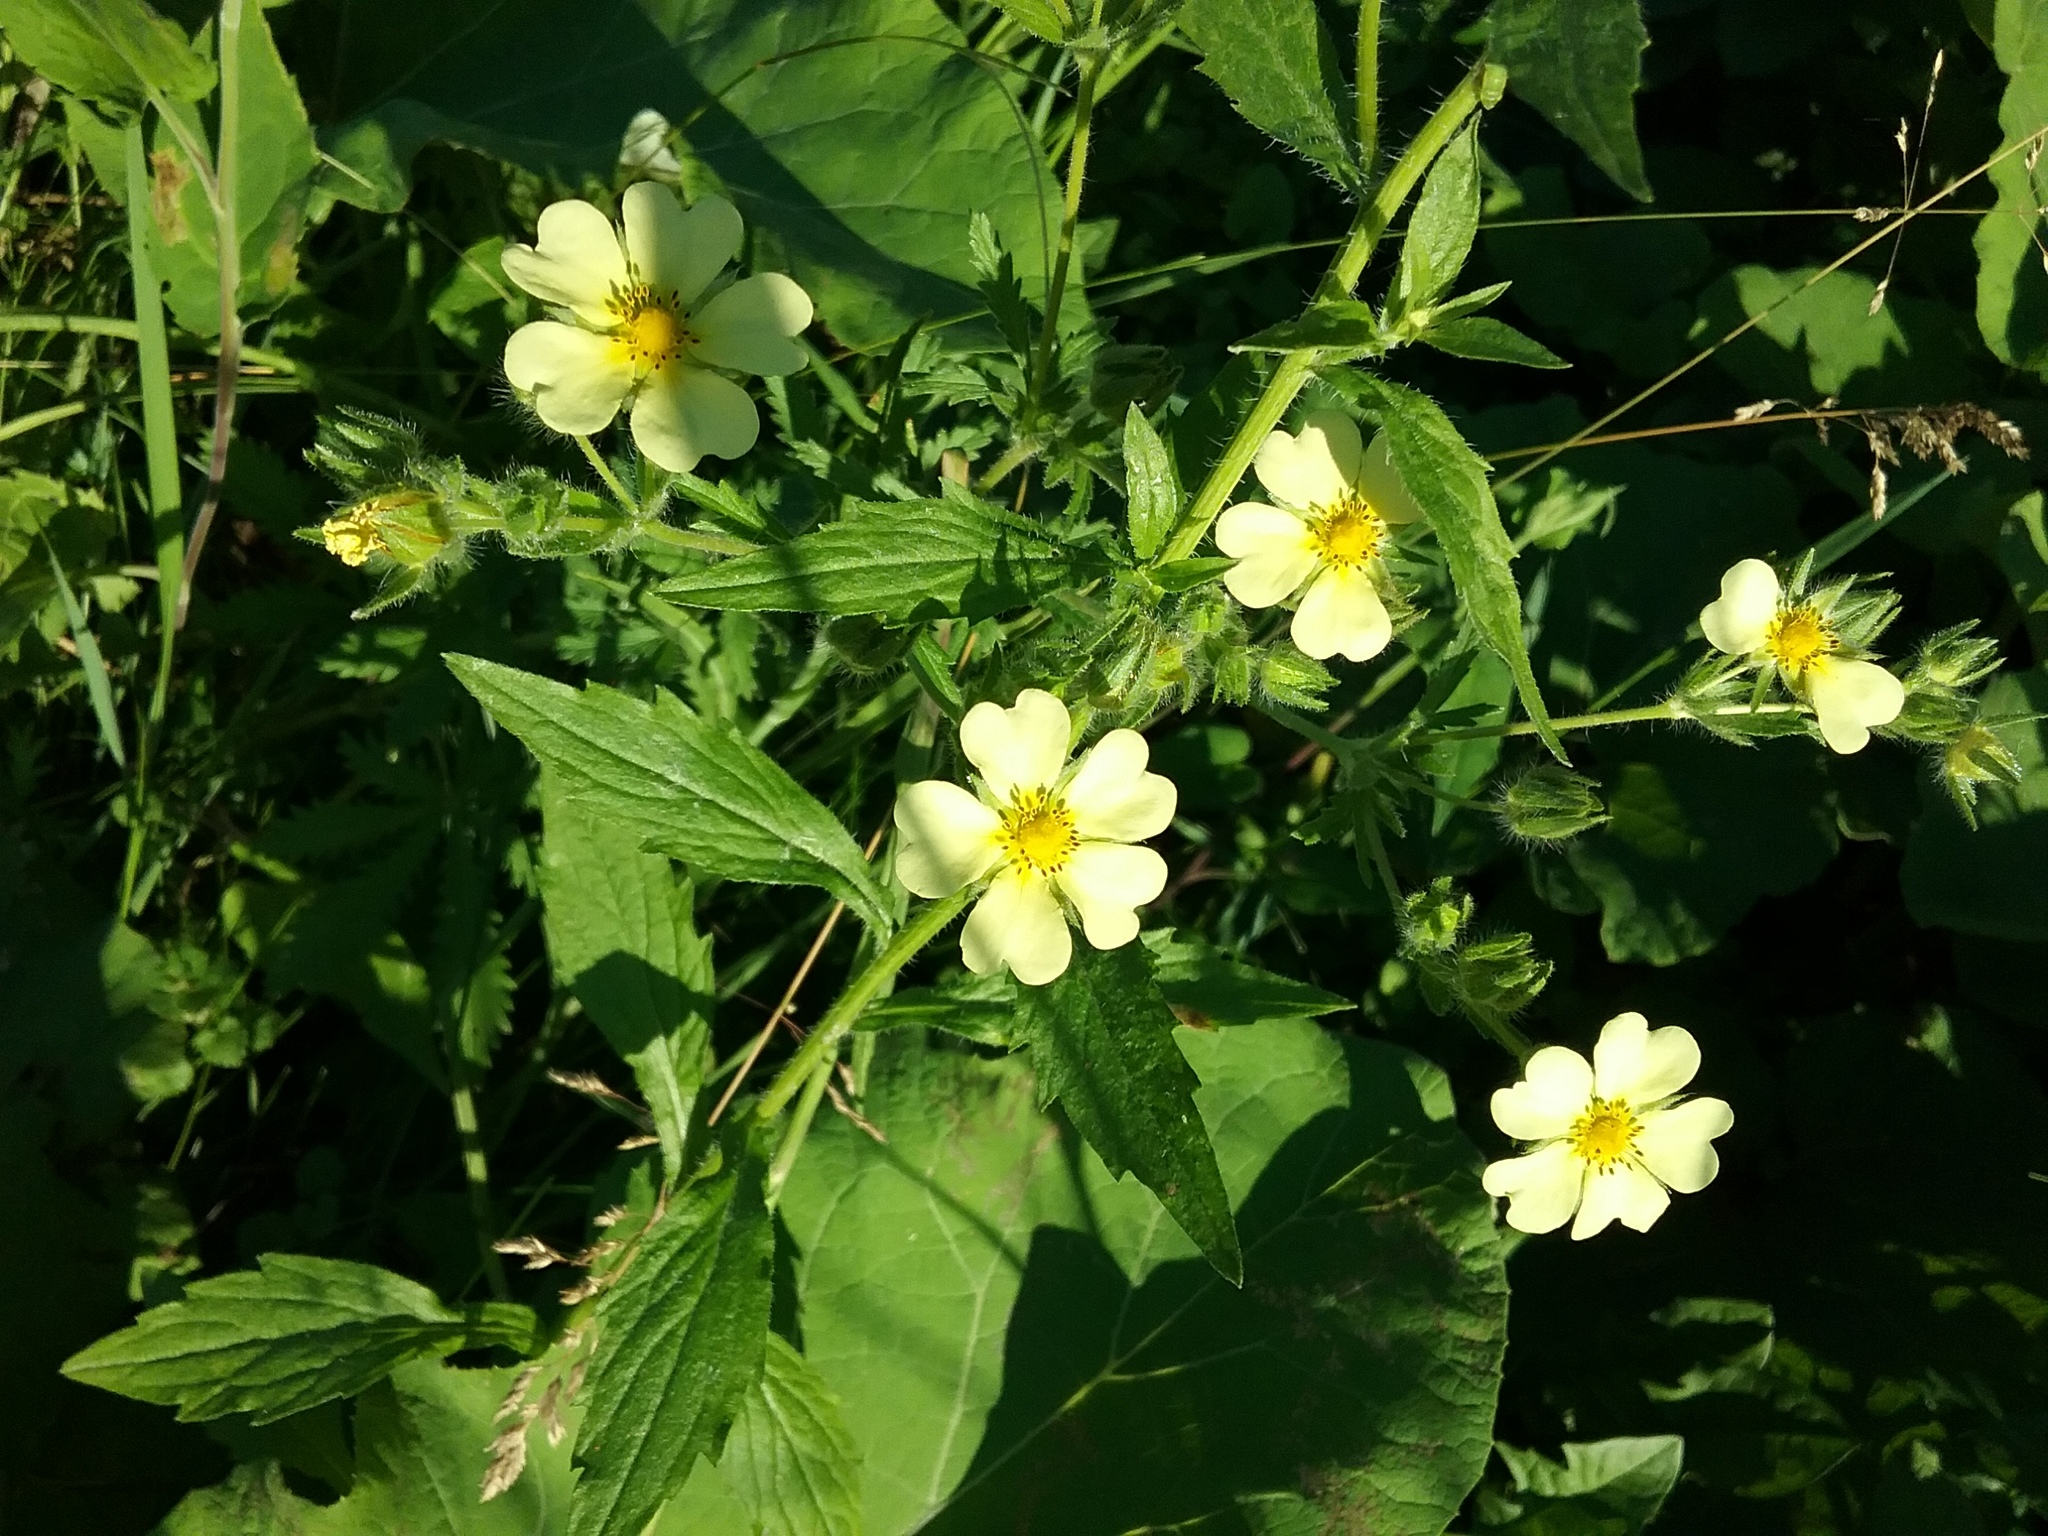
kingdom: Plantae
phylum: Tracheophyta
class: Magnoliopsida
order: Rosales
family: Rosaceae
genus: Potentilla
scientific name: Potentilla recta
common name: Sulphur cinquefoil
